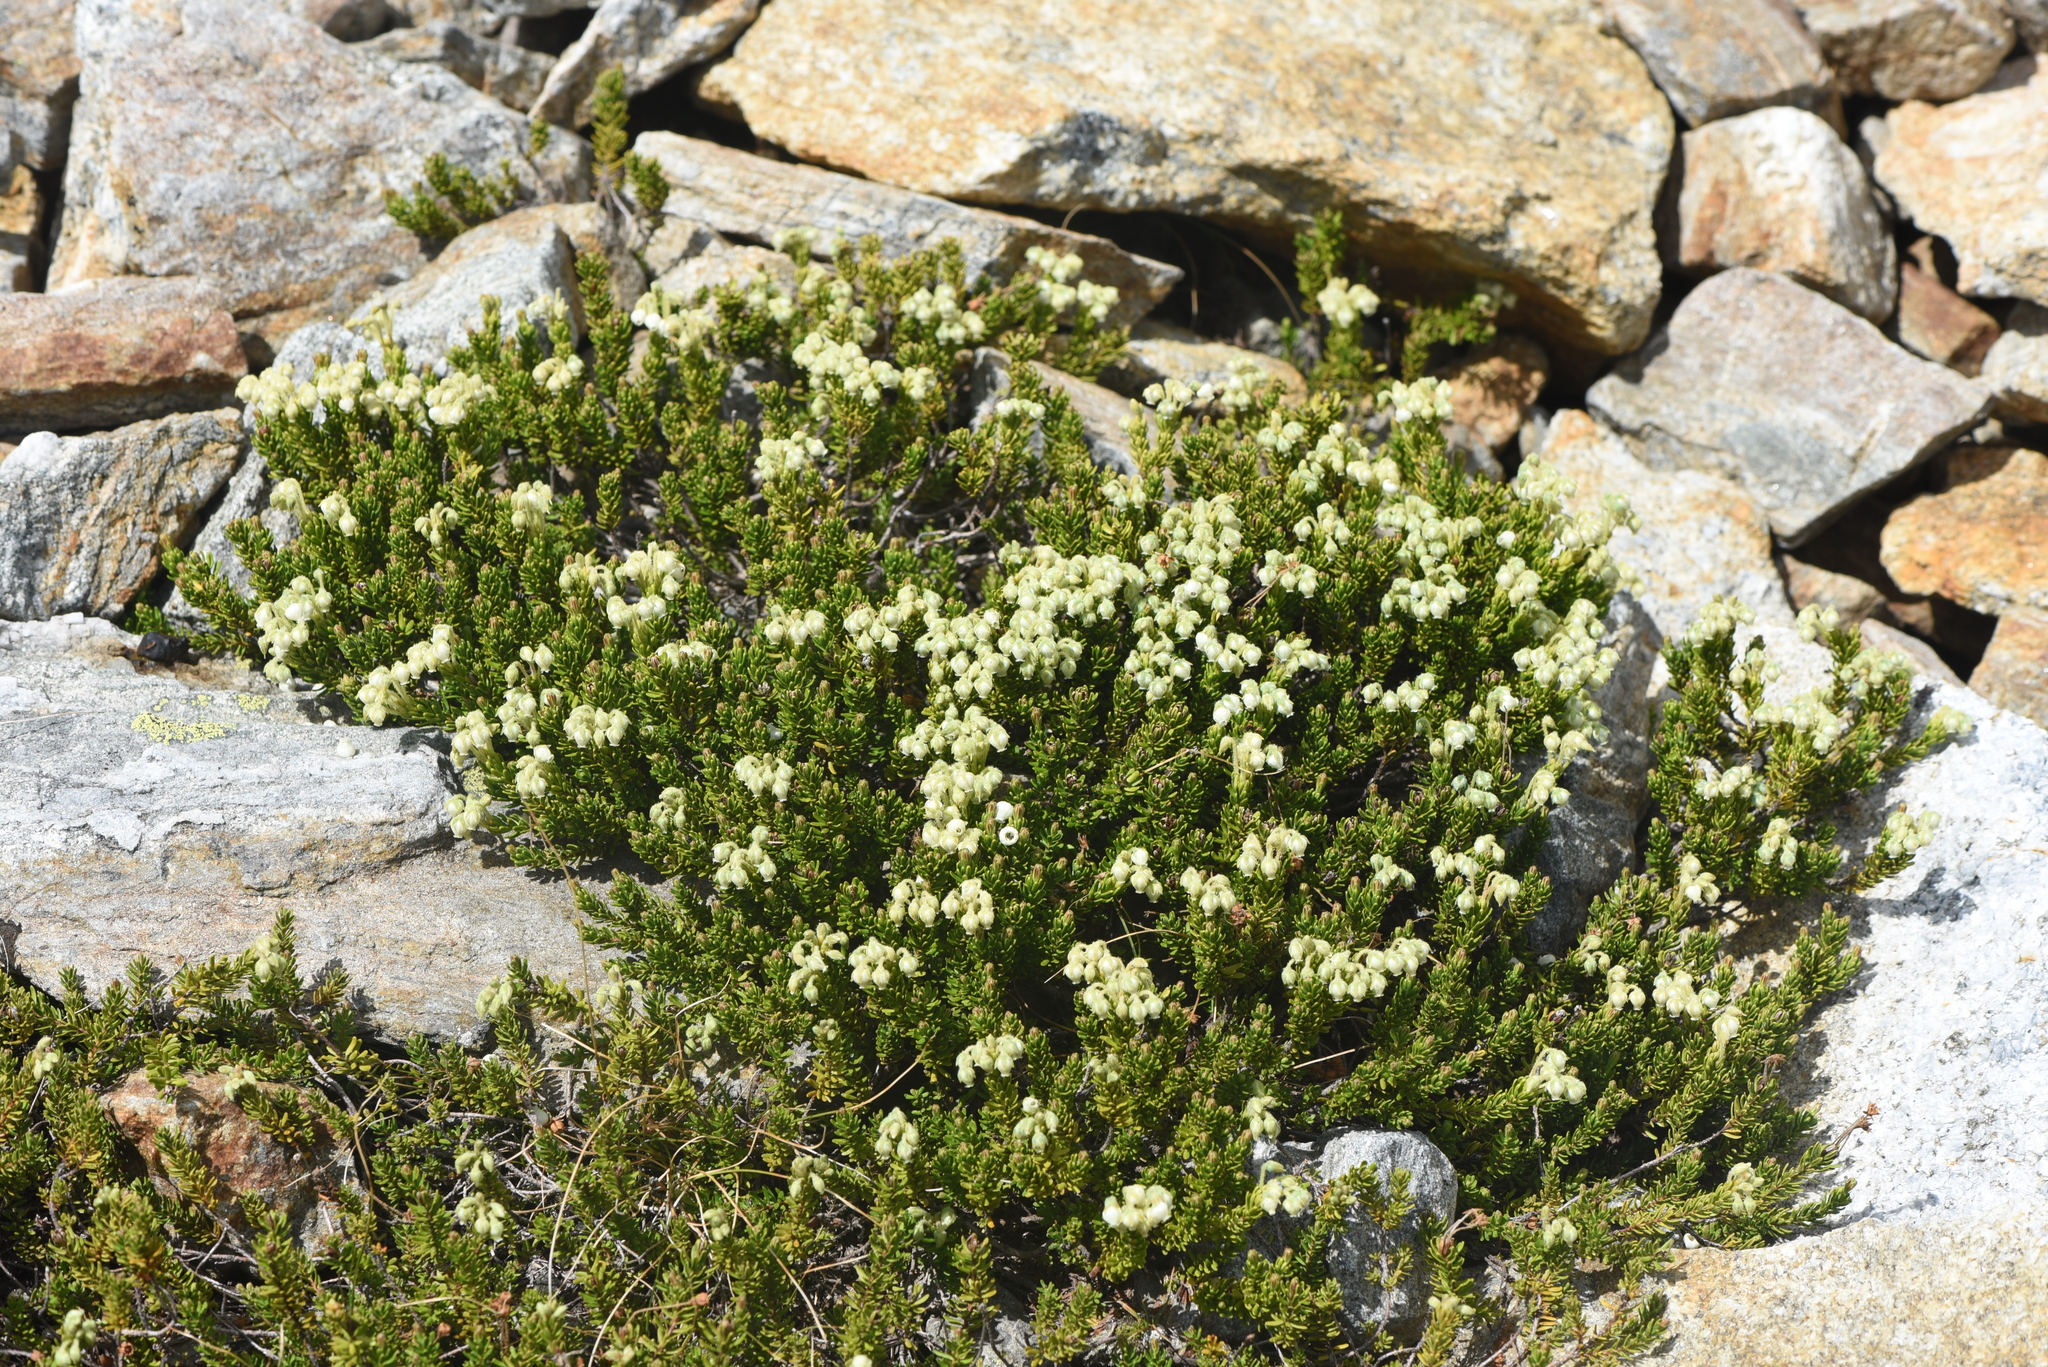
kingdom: Plantae
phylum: Tracheophyta
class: Magnoliopsida
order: Ericales
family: Ericaceae
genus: Phyllodoce
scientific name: Phyllodoce glanduliflora
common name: Cream mountain heather
